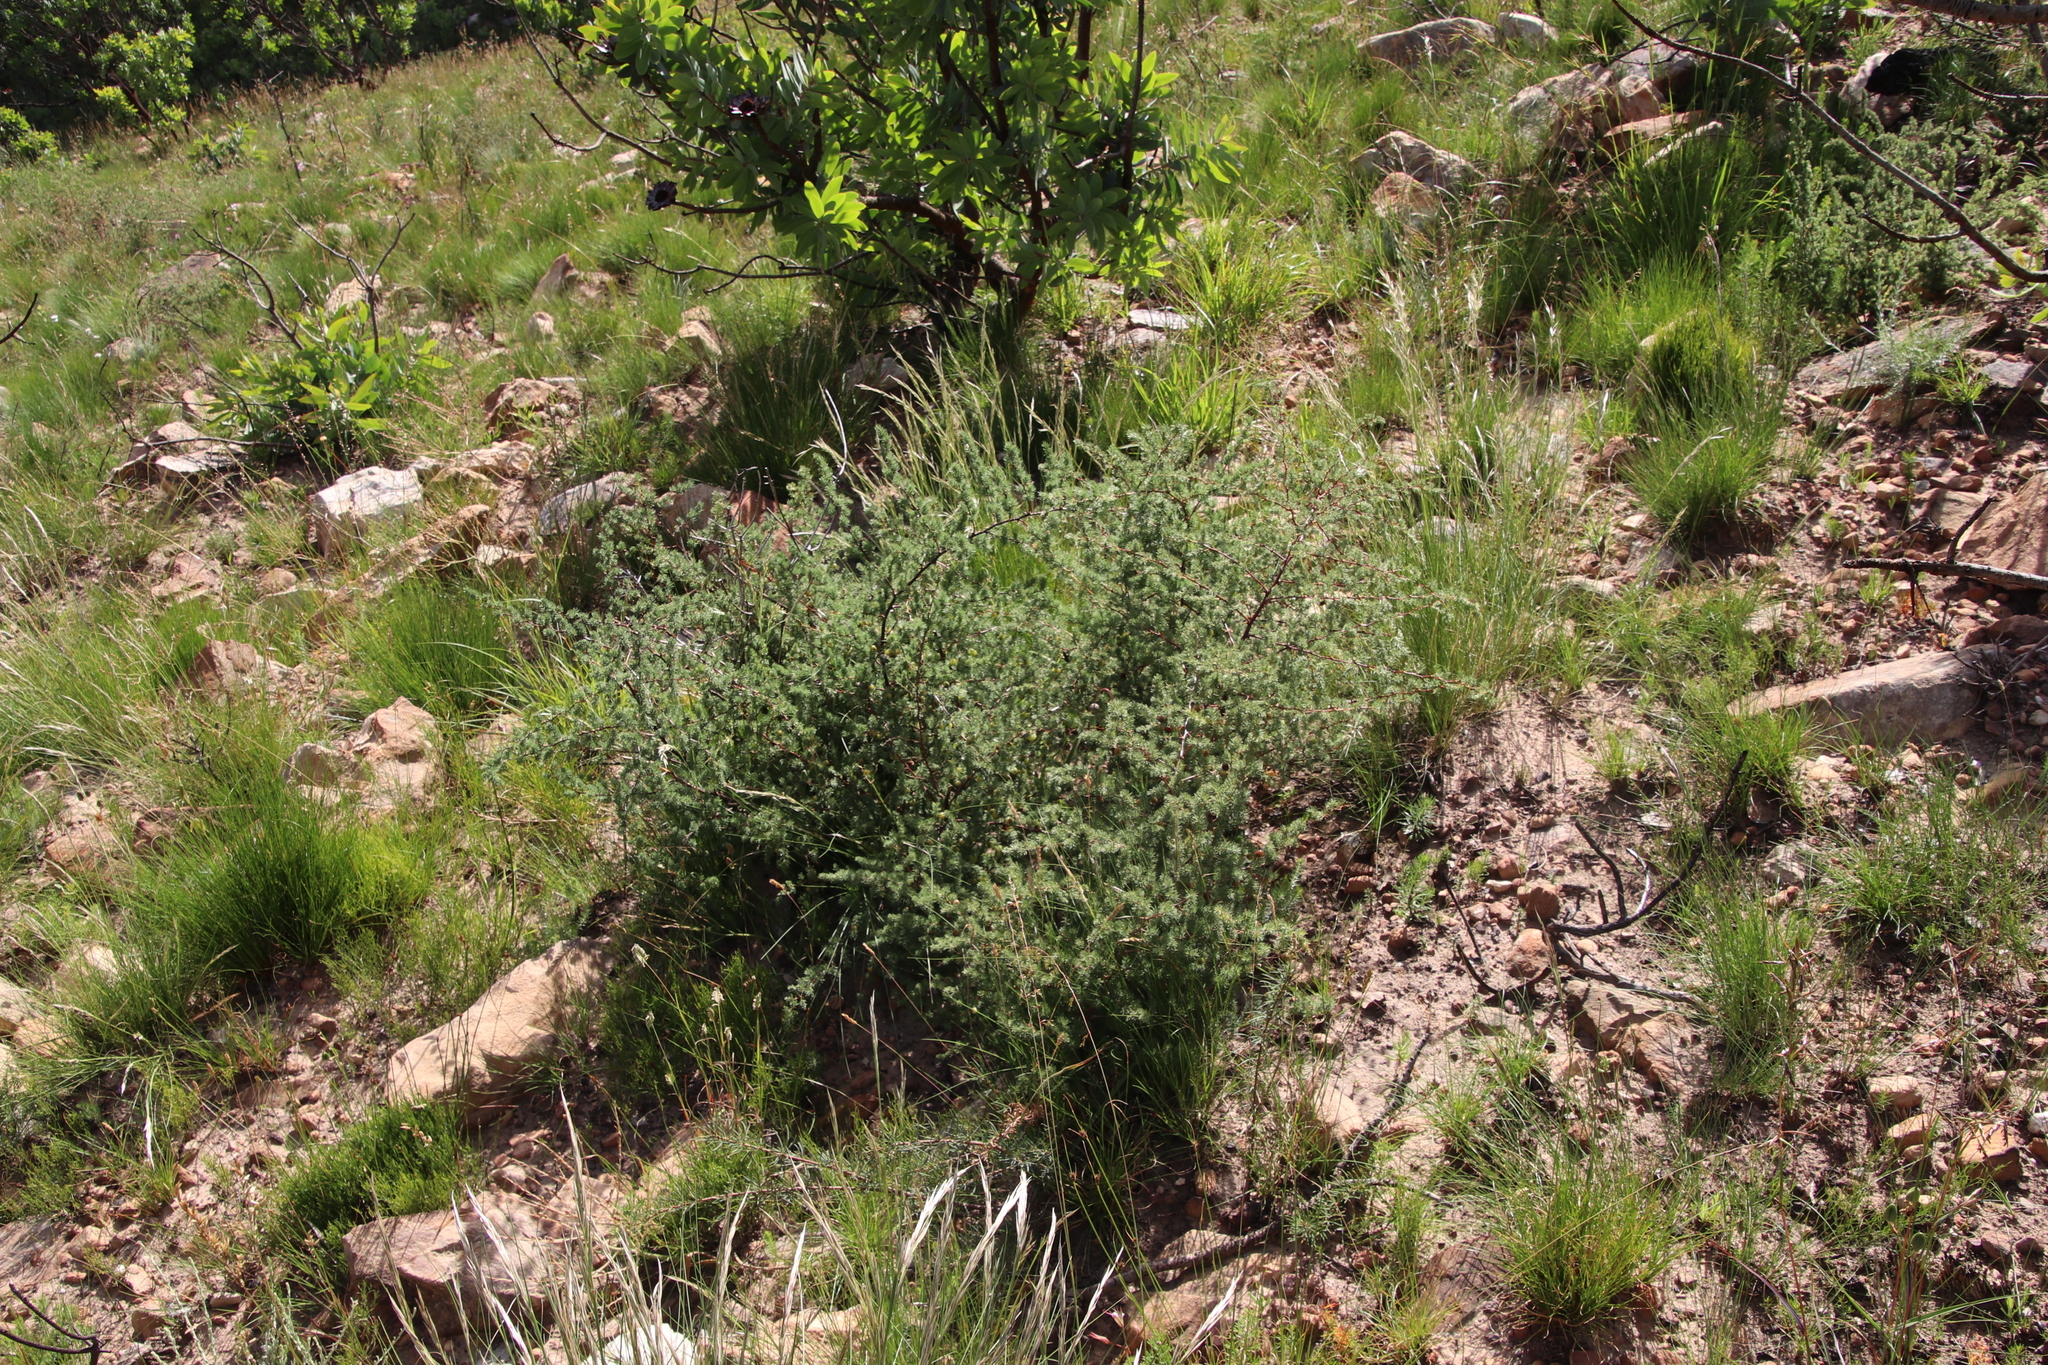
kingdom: Plantae
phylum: Tracheophyta
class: Liliopsida
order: Asparagales
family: Asparagaceae
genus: Asparagus
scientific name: Asparagus rubicundus
